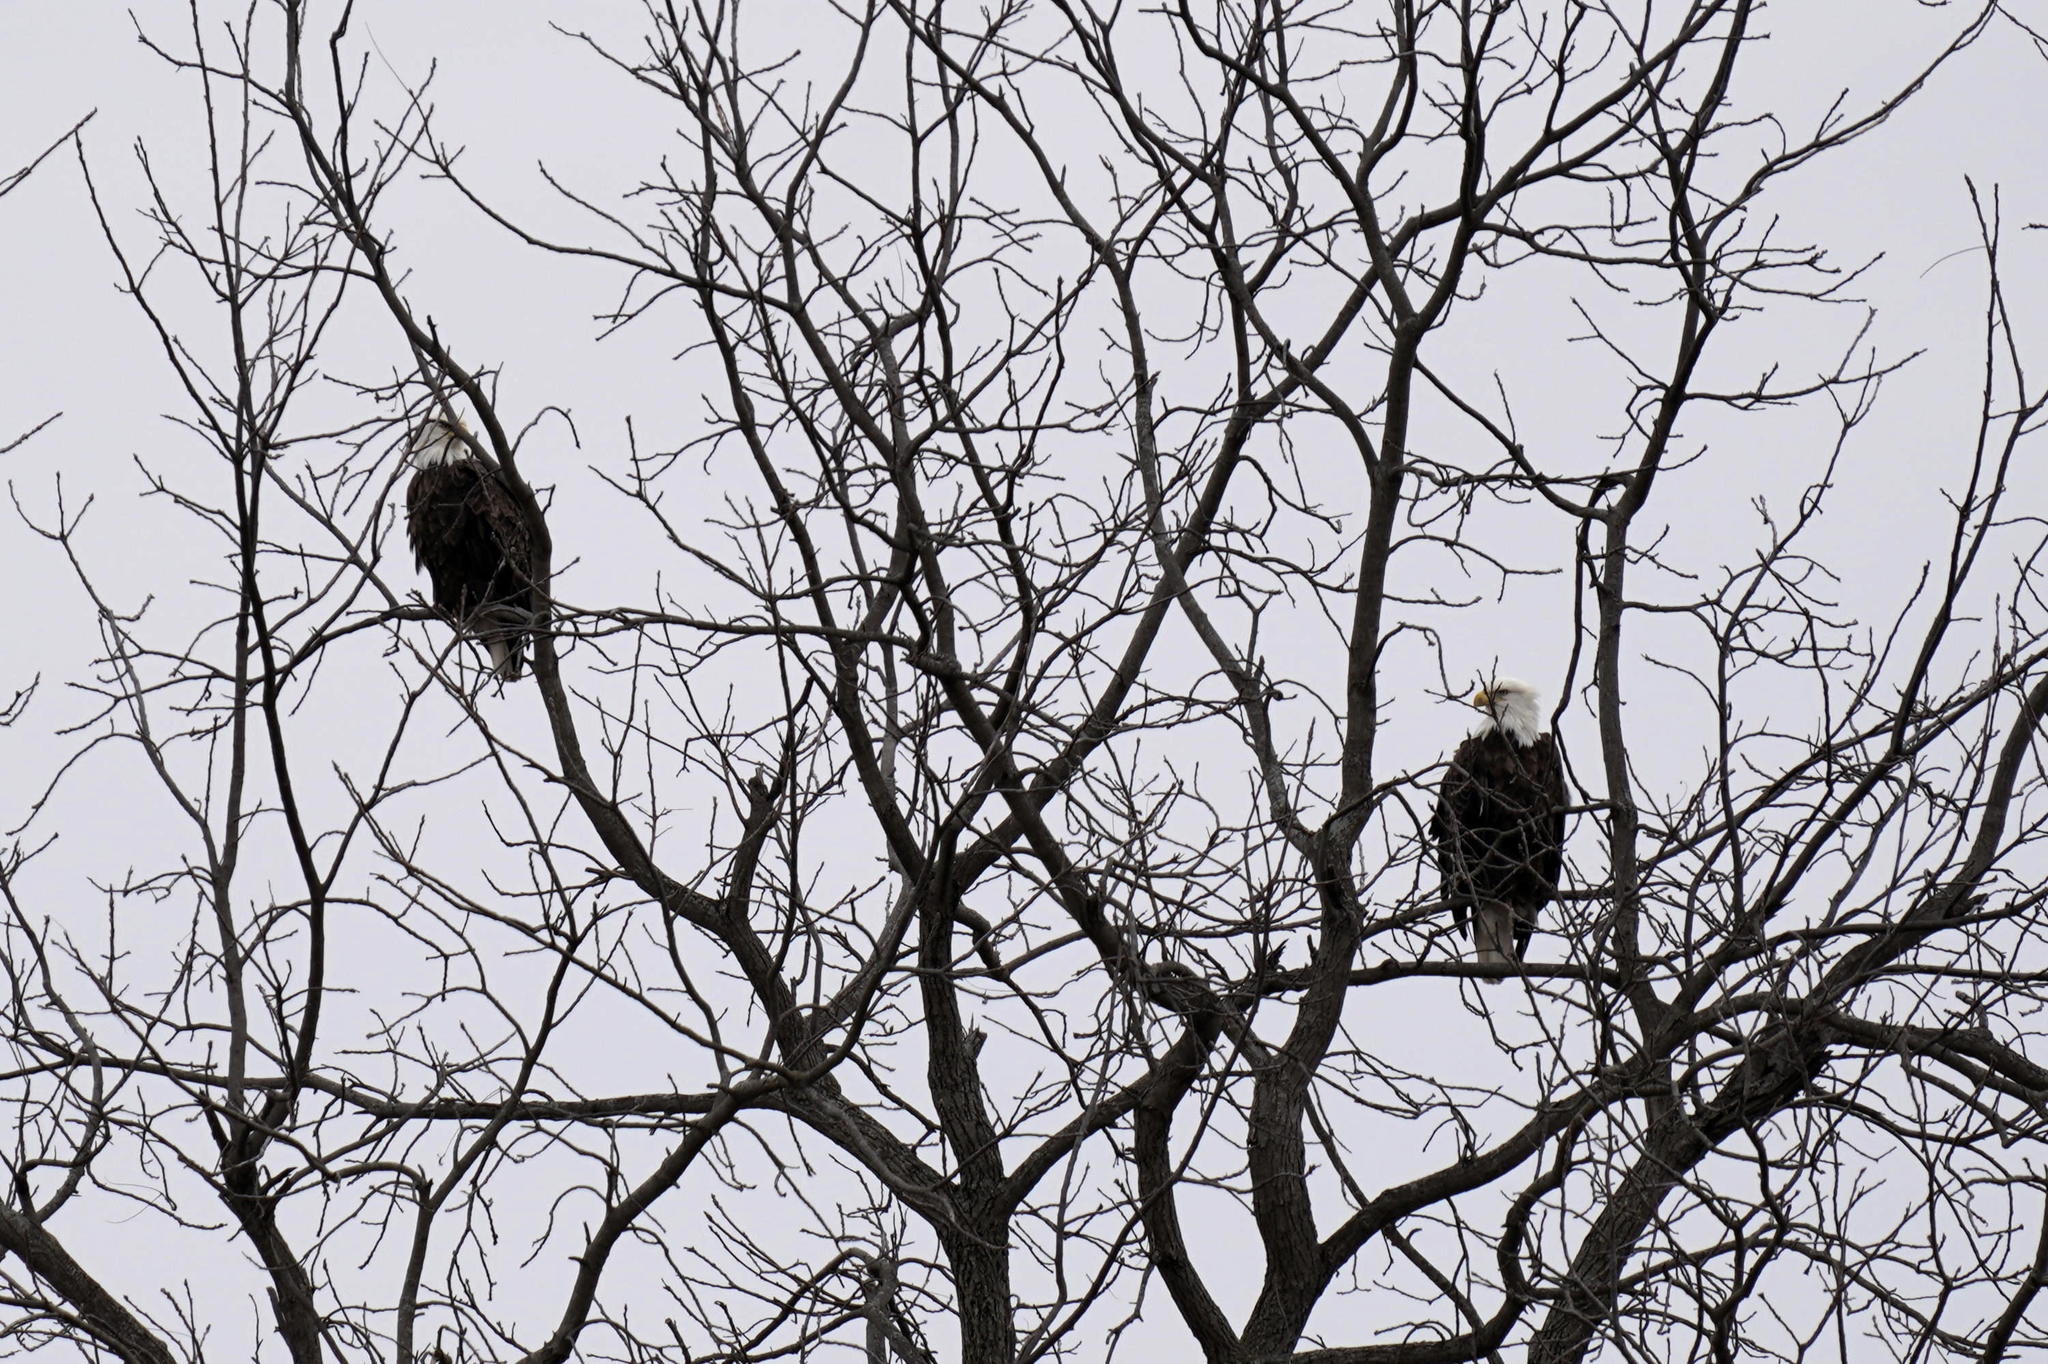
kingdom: Animalia
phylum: Chordata
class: Aves
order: Accipitriformes
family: Accipitridae
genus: Haliaeetus
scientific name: Haliaeetus leucocephalus
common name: Bald eagle
